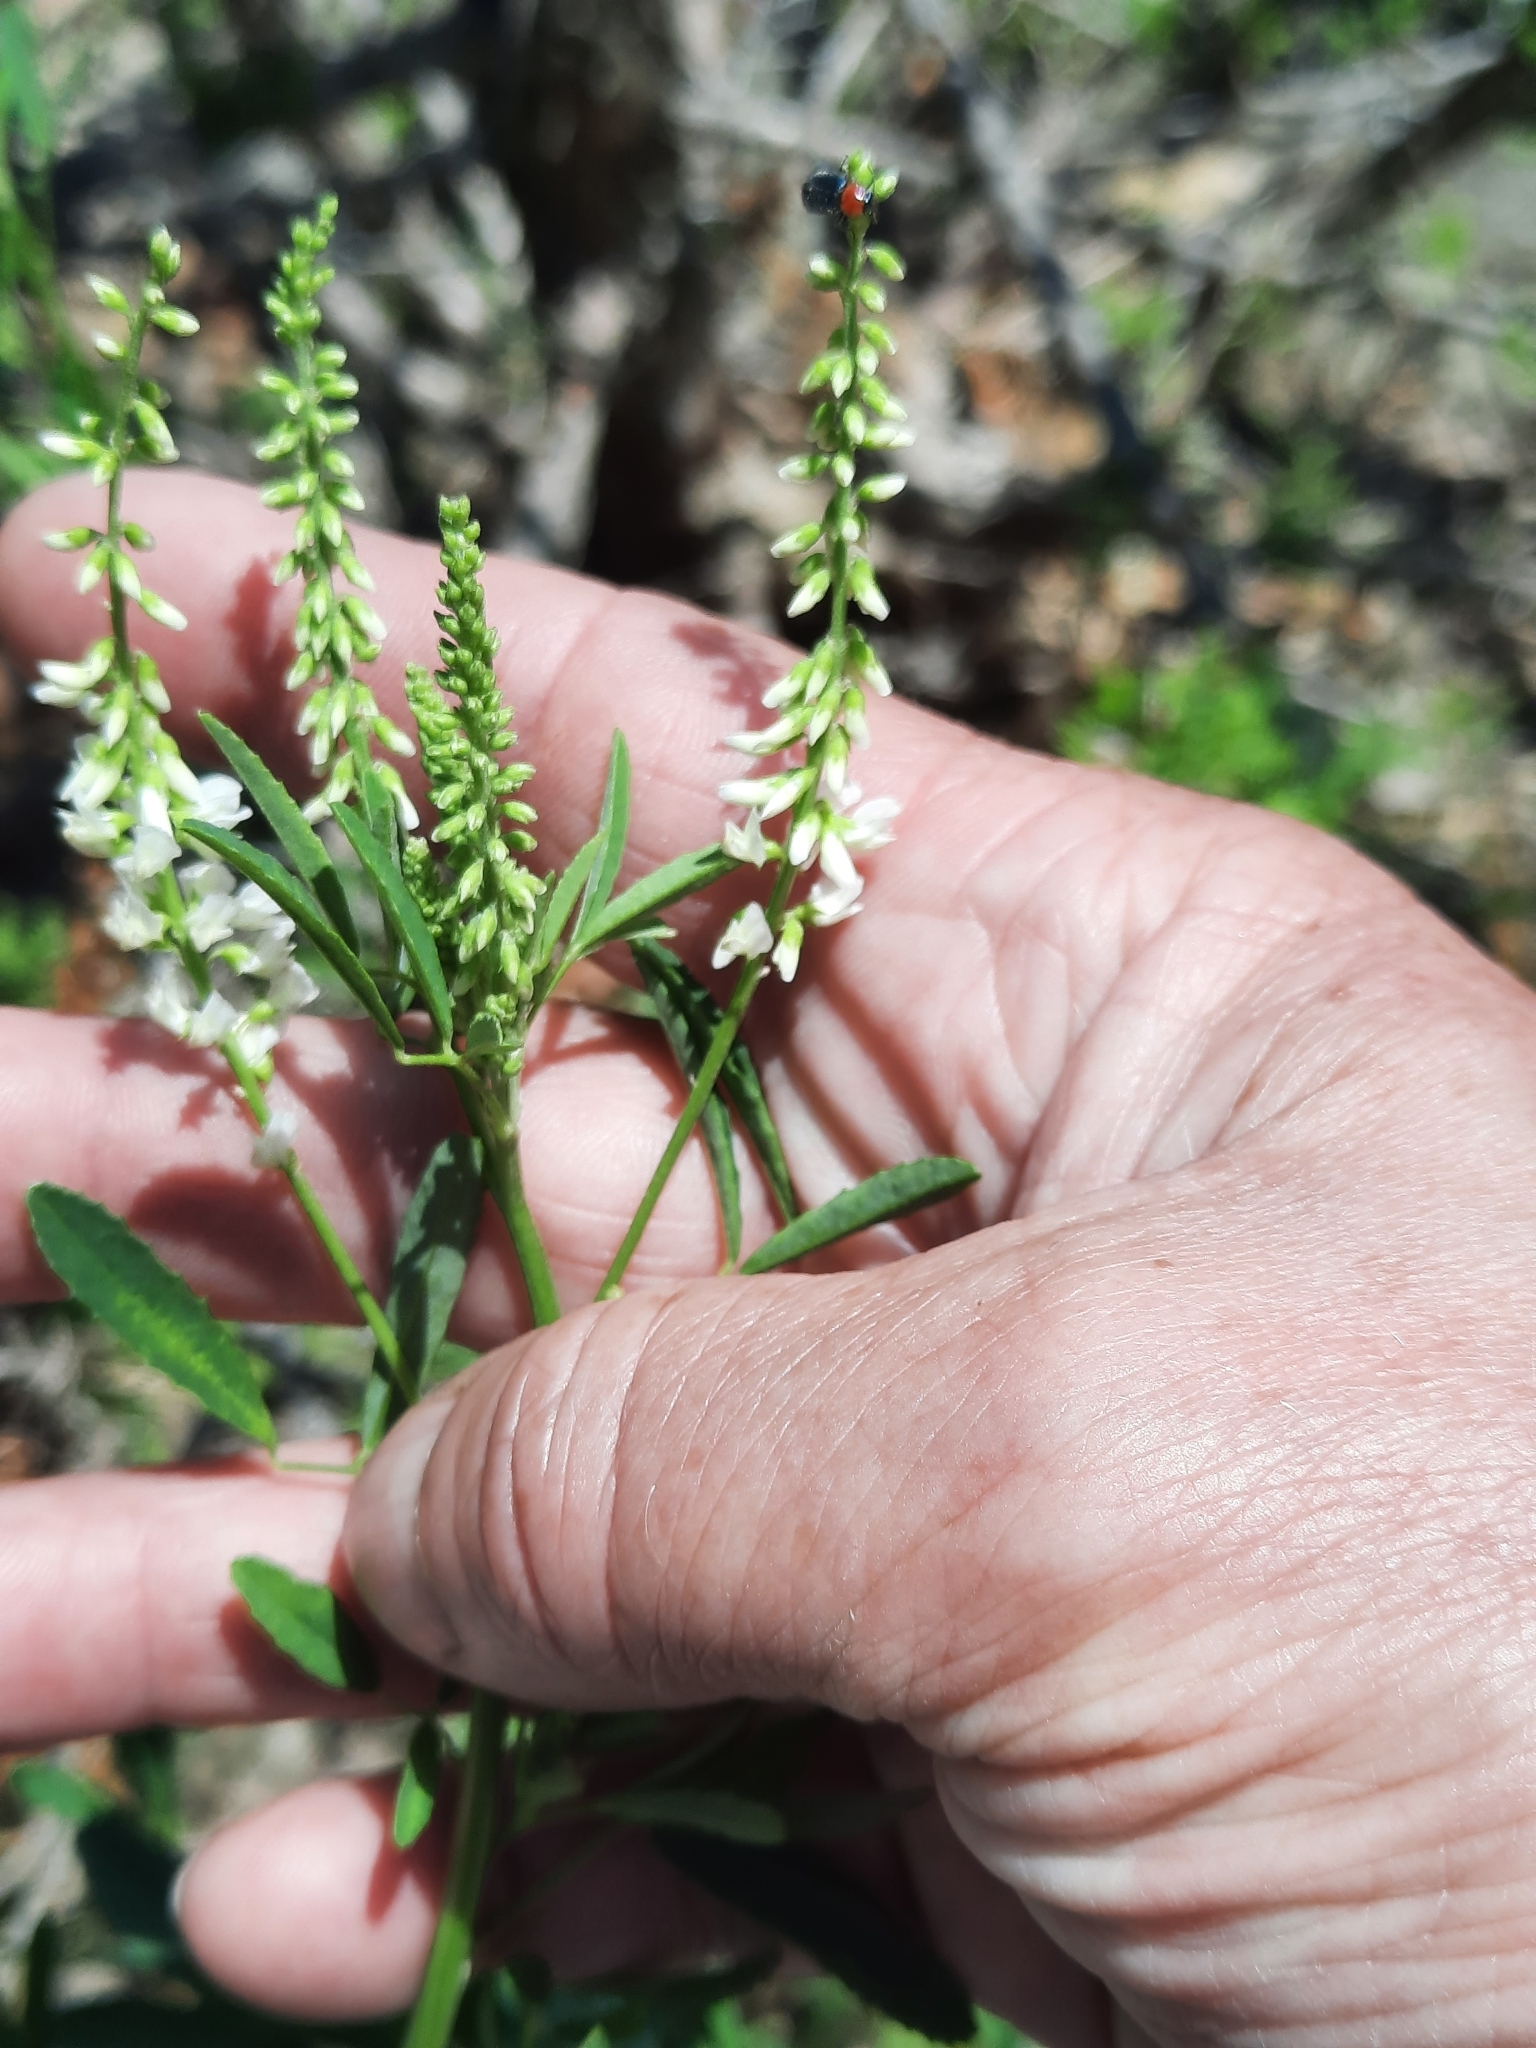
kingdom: Plantae
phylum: Tracheophyta
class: Magnoliopsida
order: Fabales
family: Fabaceae
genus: Melilotus
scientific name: Melilotus albus
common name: White melilot
